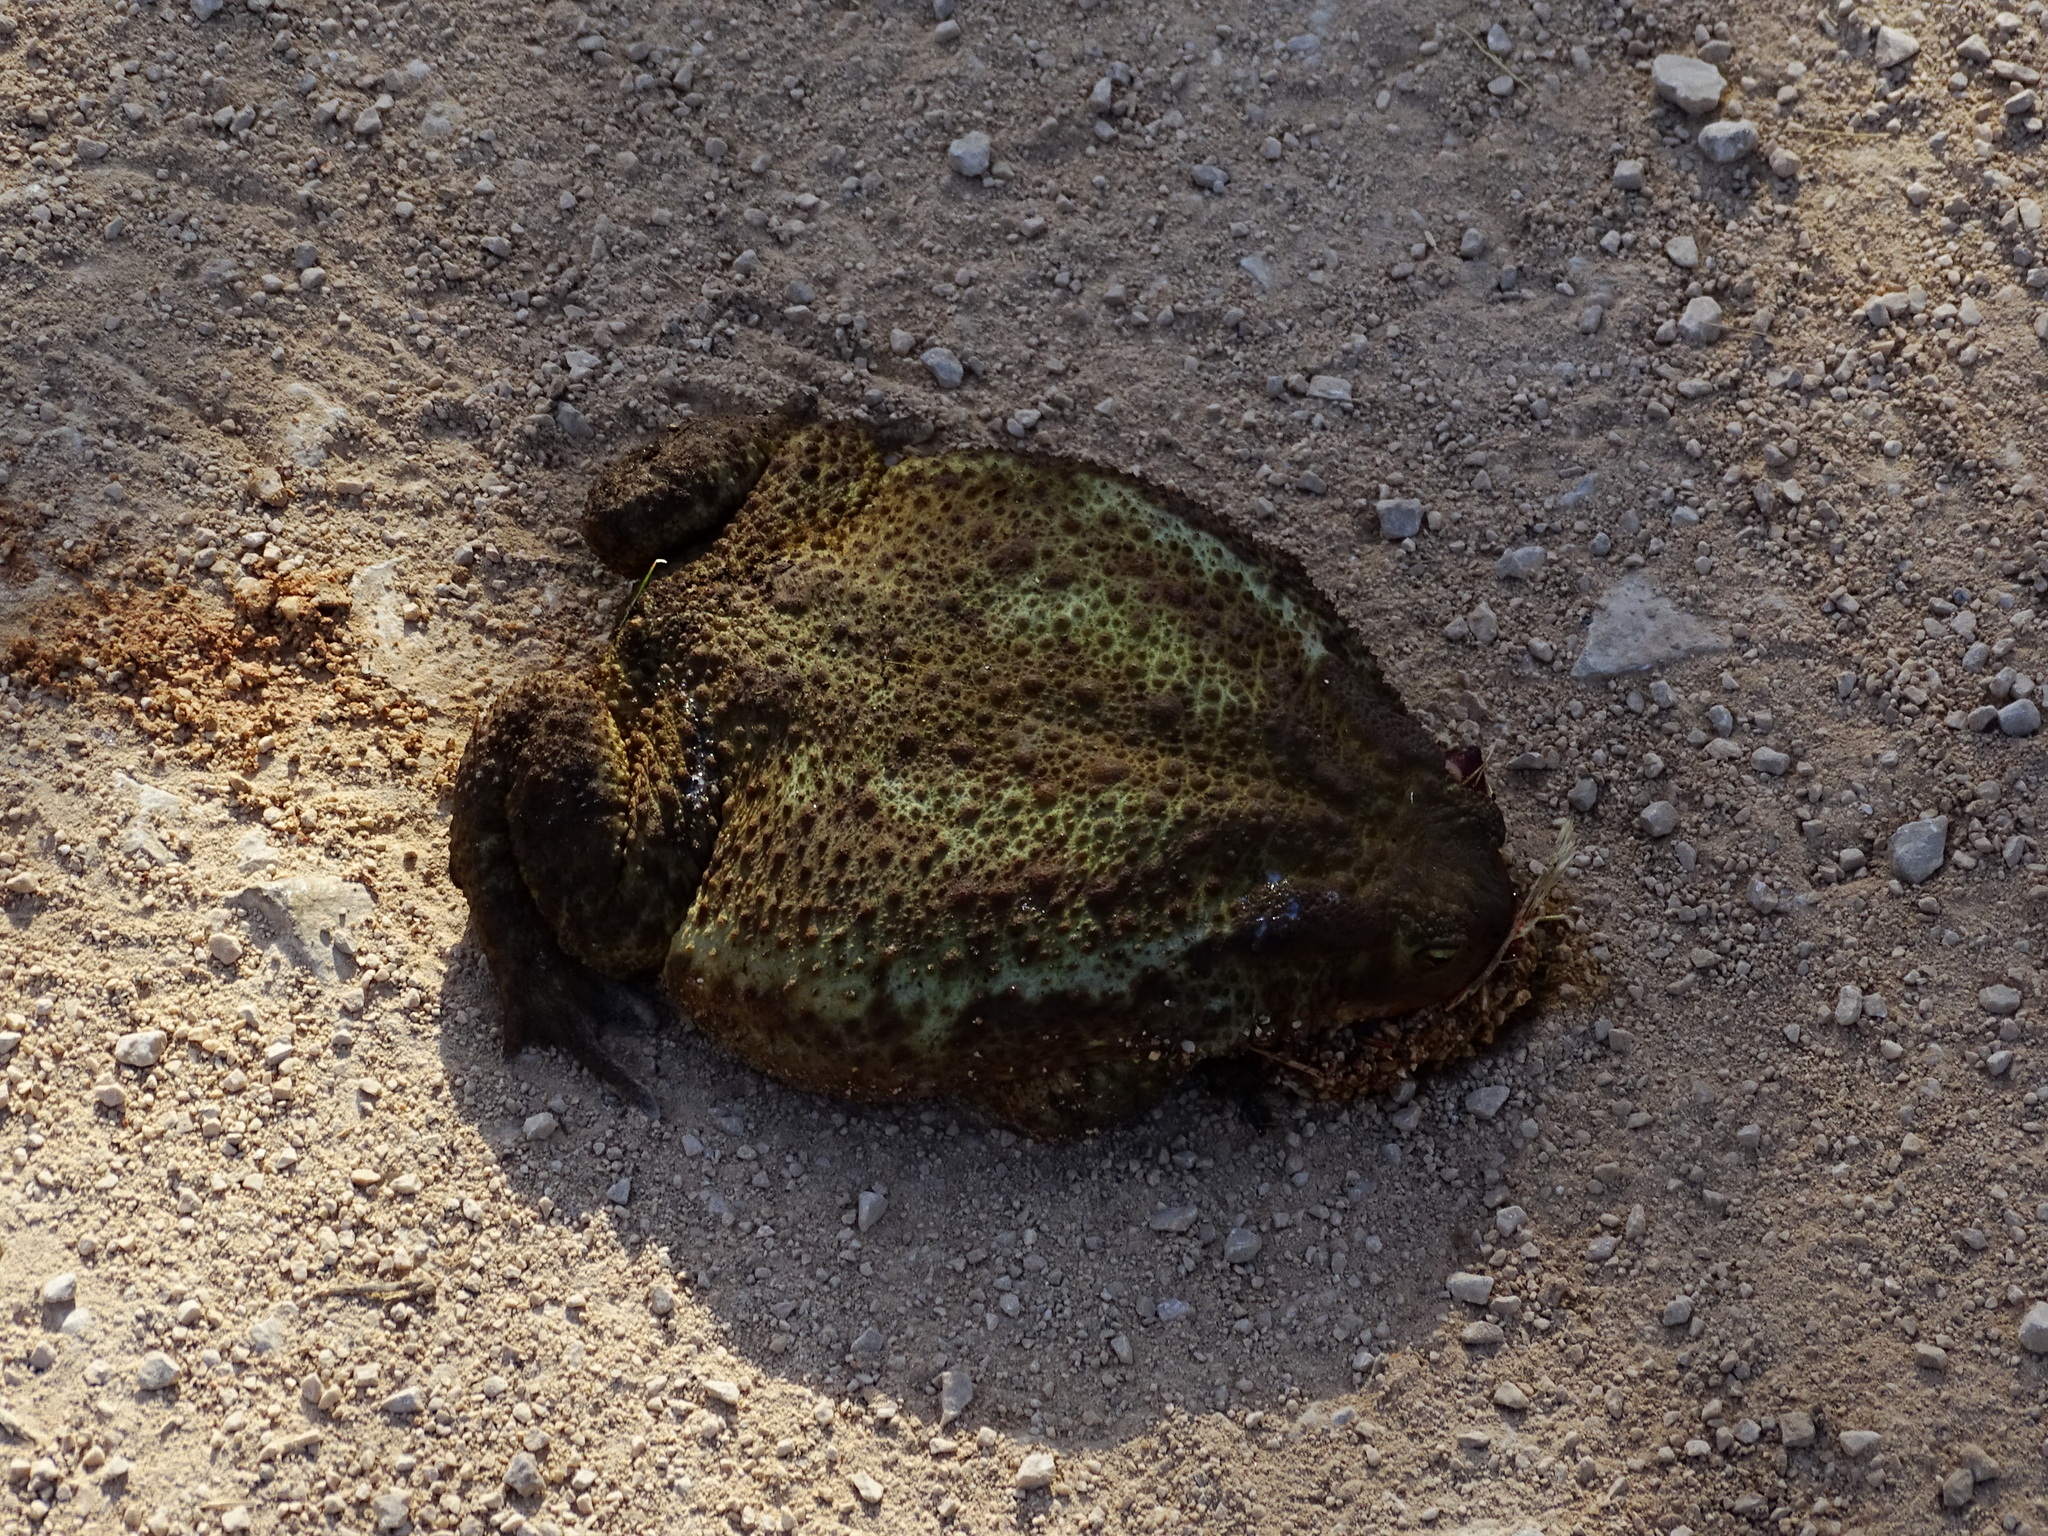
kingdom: Animalia
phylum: Chordata
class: Amphibia
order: Anura
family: Bufonidae
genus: Bufo
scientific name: Bufo bufo
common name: Common toad
